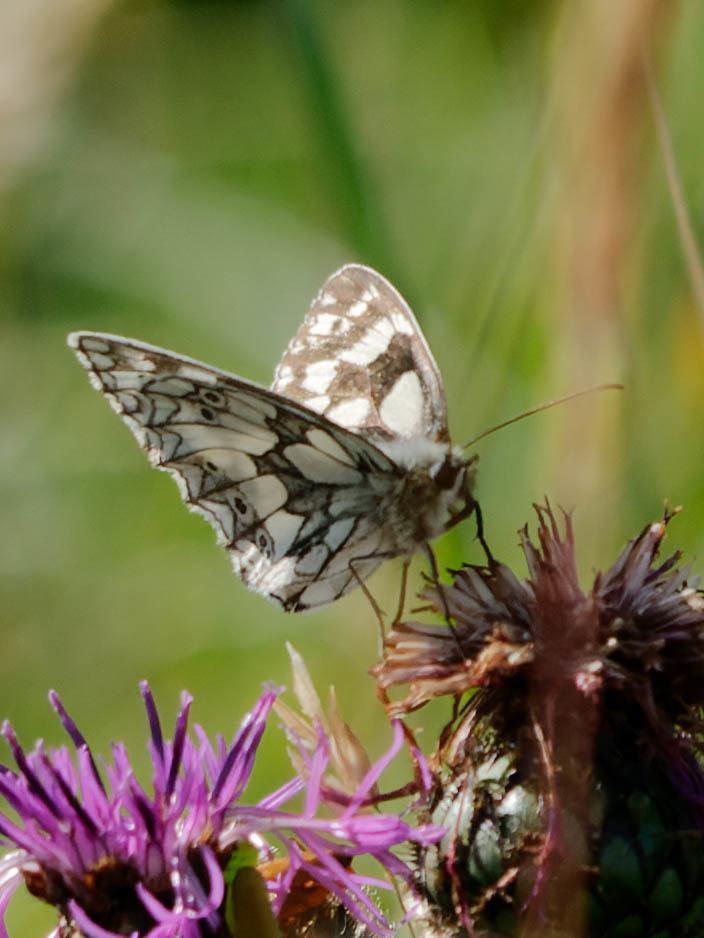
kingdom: Animalia
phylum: Arthropoda
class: Insecta
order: Lepidoptera
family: Nymphalidae
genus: Melanargia
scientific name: Melanargia galathea
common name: Marbled white
